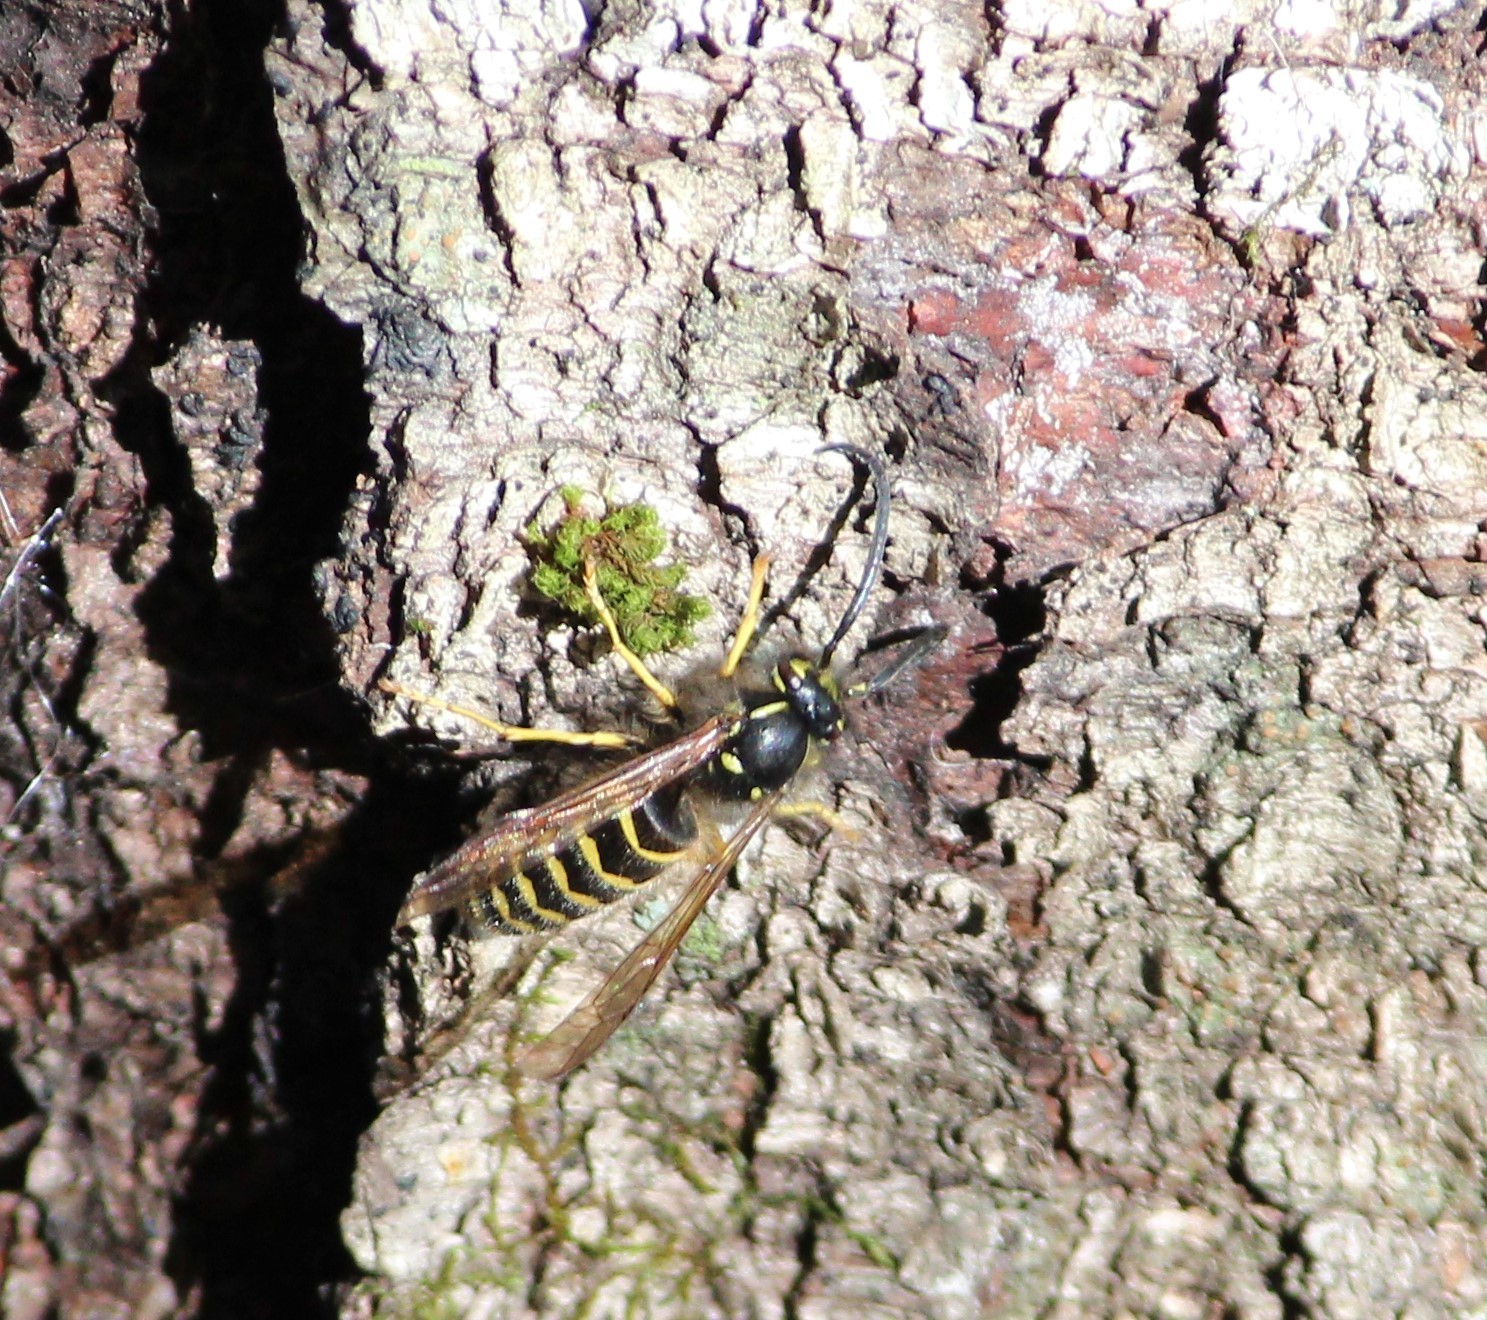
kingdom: Animalia
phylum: Arthropoda
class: Insecta
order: Hymenoptera
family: Vespidae
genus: Vespula
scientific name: Vespula alascensis
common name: Alaska yellowjacket
